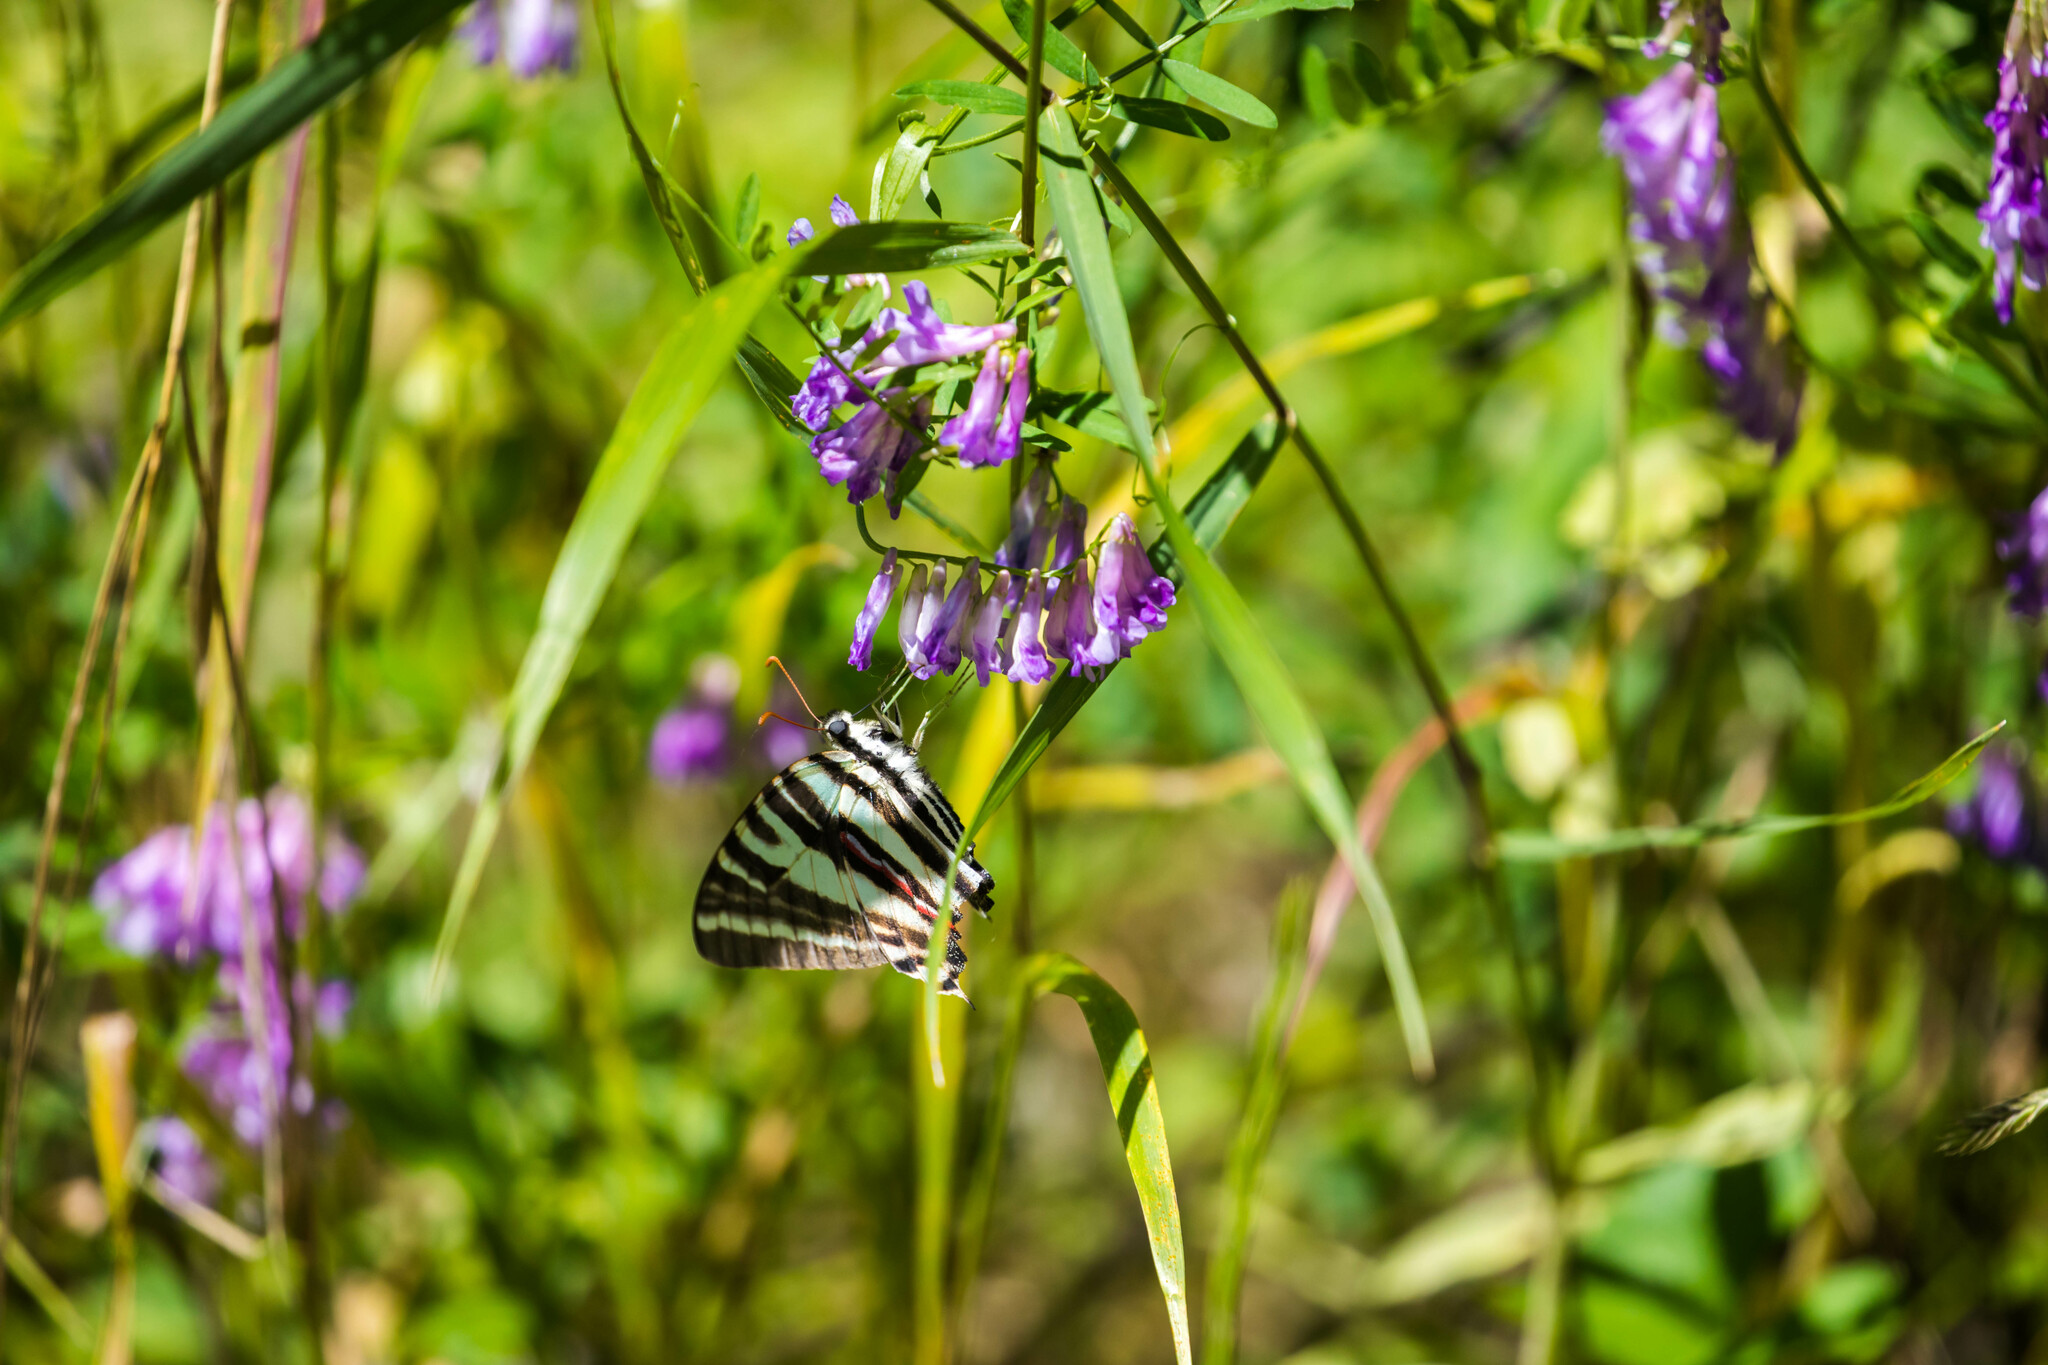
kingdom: Animalia
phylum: Arthropoda
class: Insecta
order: Lepidoptera
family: Papilionidae
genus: Protographium
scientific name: Protographium marcellus
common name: Zebra swallowtail
